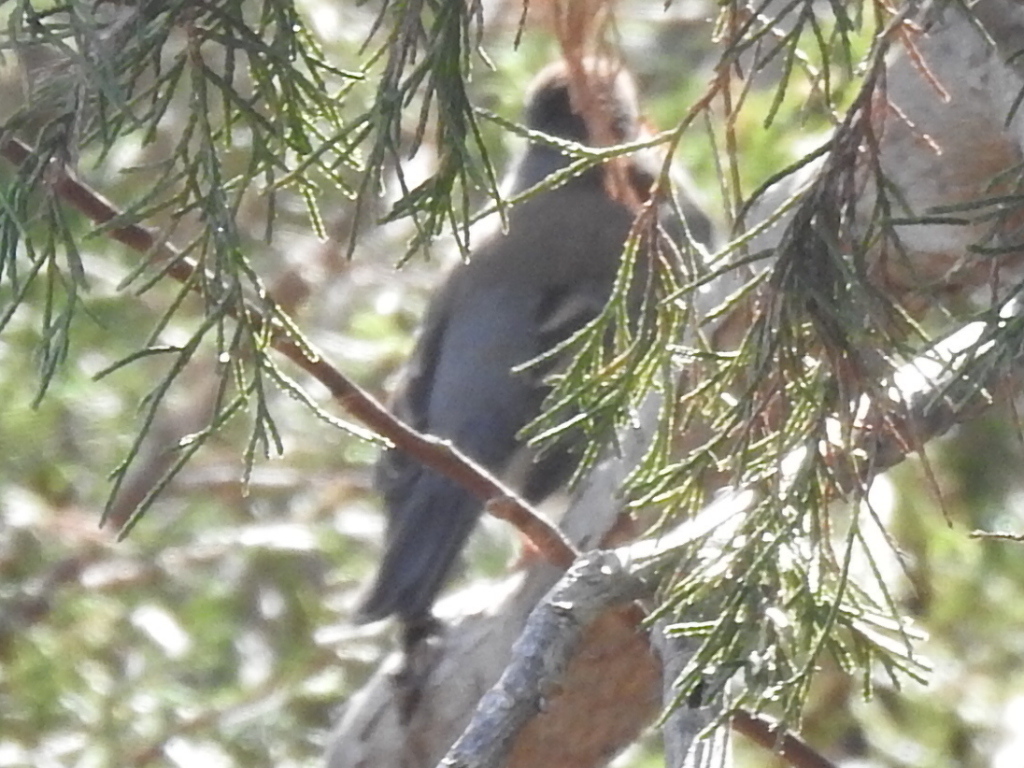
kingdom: Animalia
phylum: Chordata
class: Aves
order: Passeriformes
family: Passerellidae
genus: Junco
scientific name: Junco hyemalis
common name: Dark-eyed junco
